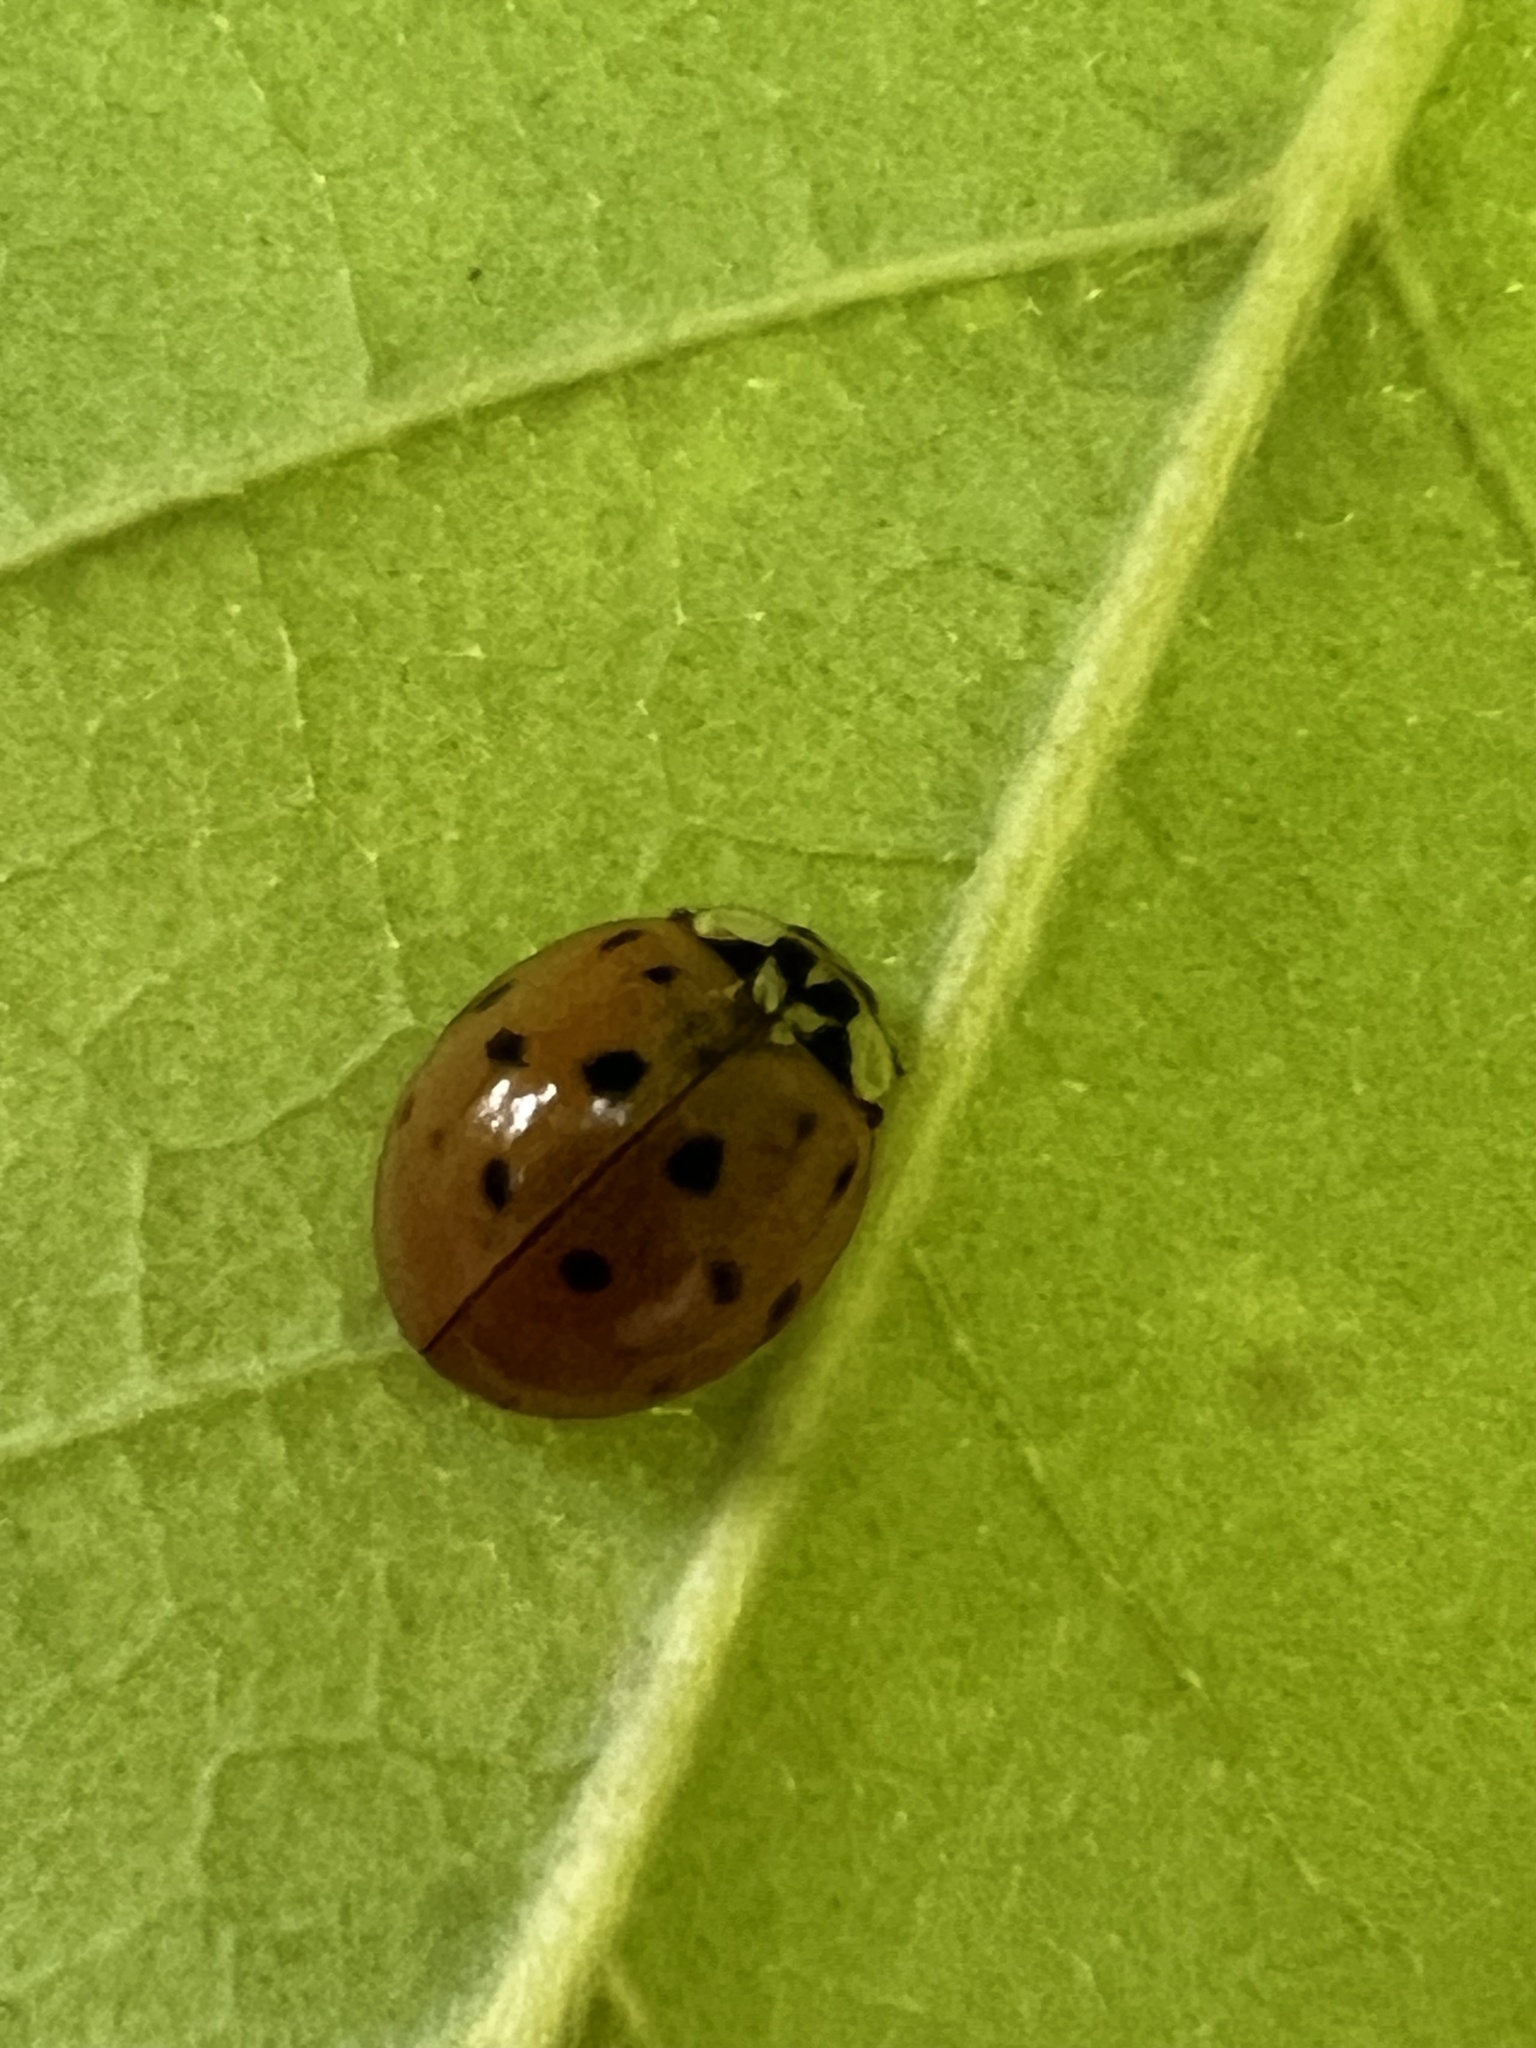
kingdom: Animalia
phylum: Arthropoda
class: Insecta
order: Coleoptera
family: Coccinellidae
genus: Harmonia
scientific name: Harmonia axyridis
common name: Harlequin ladybird
